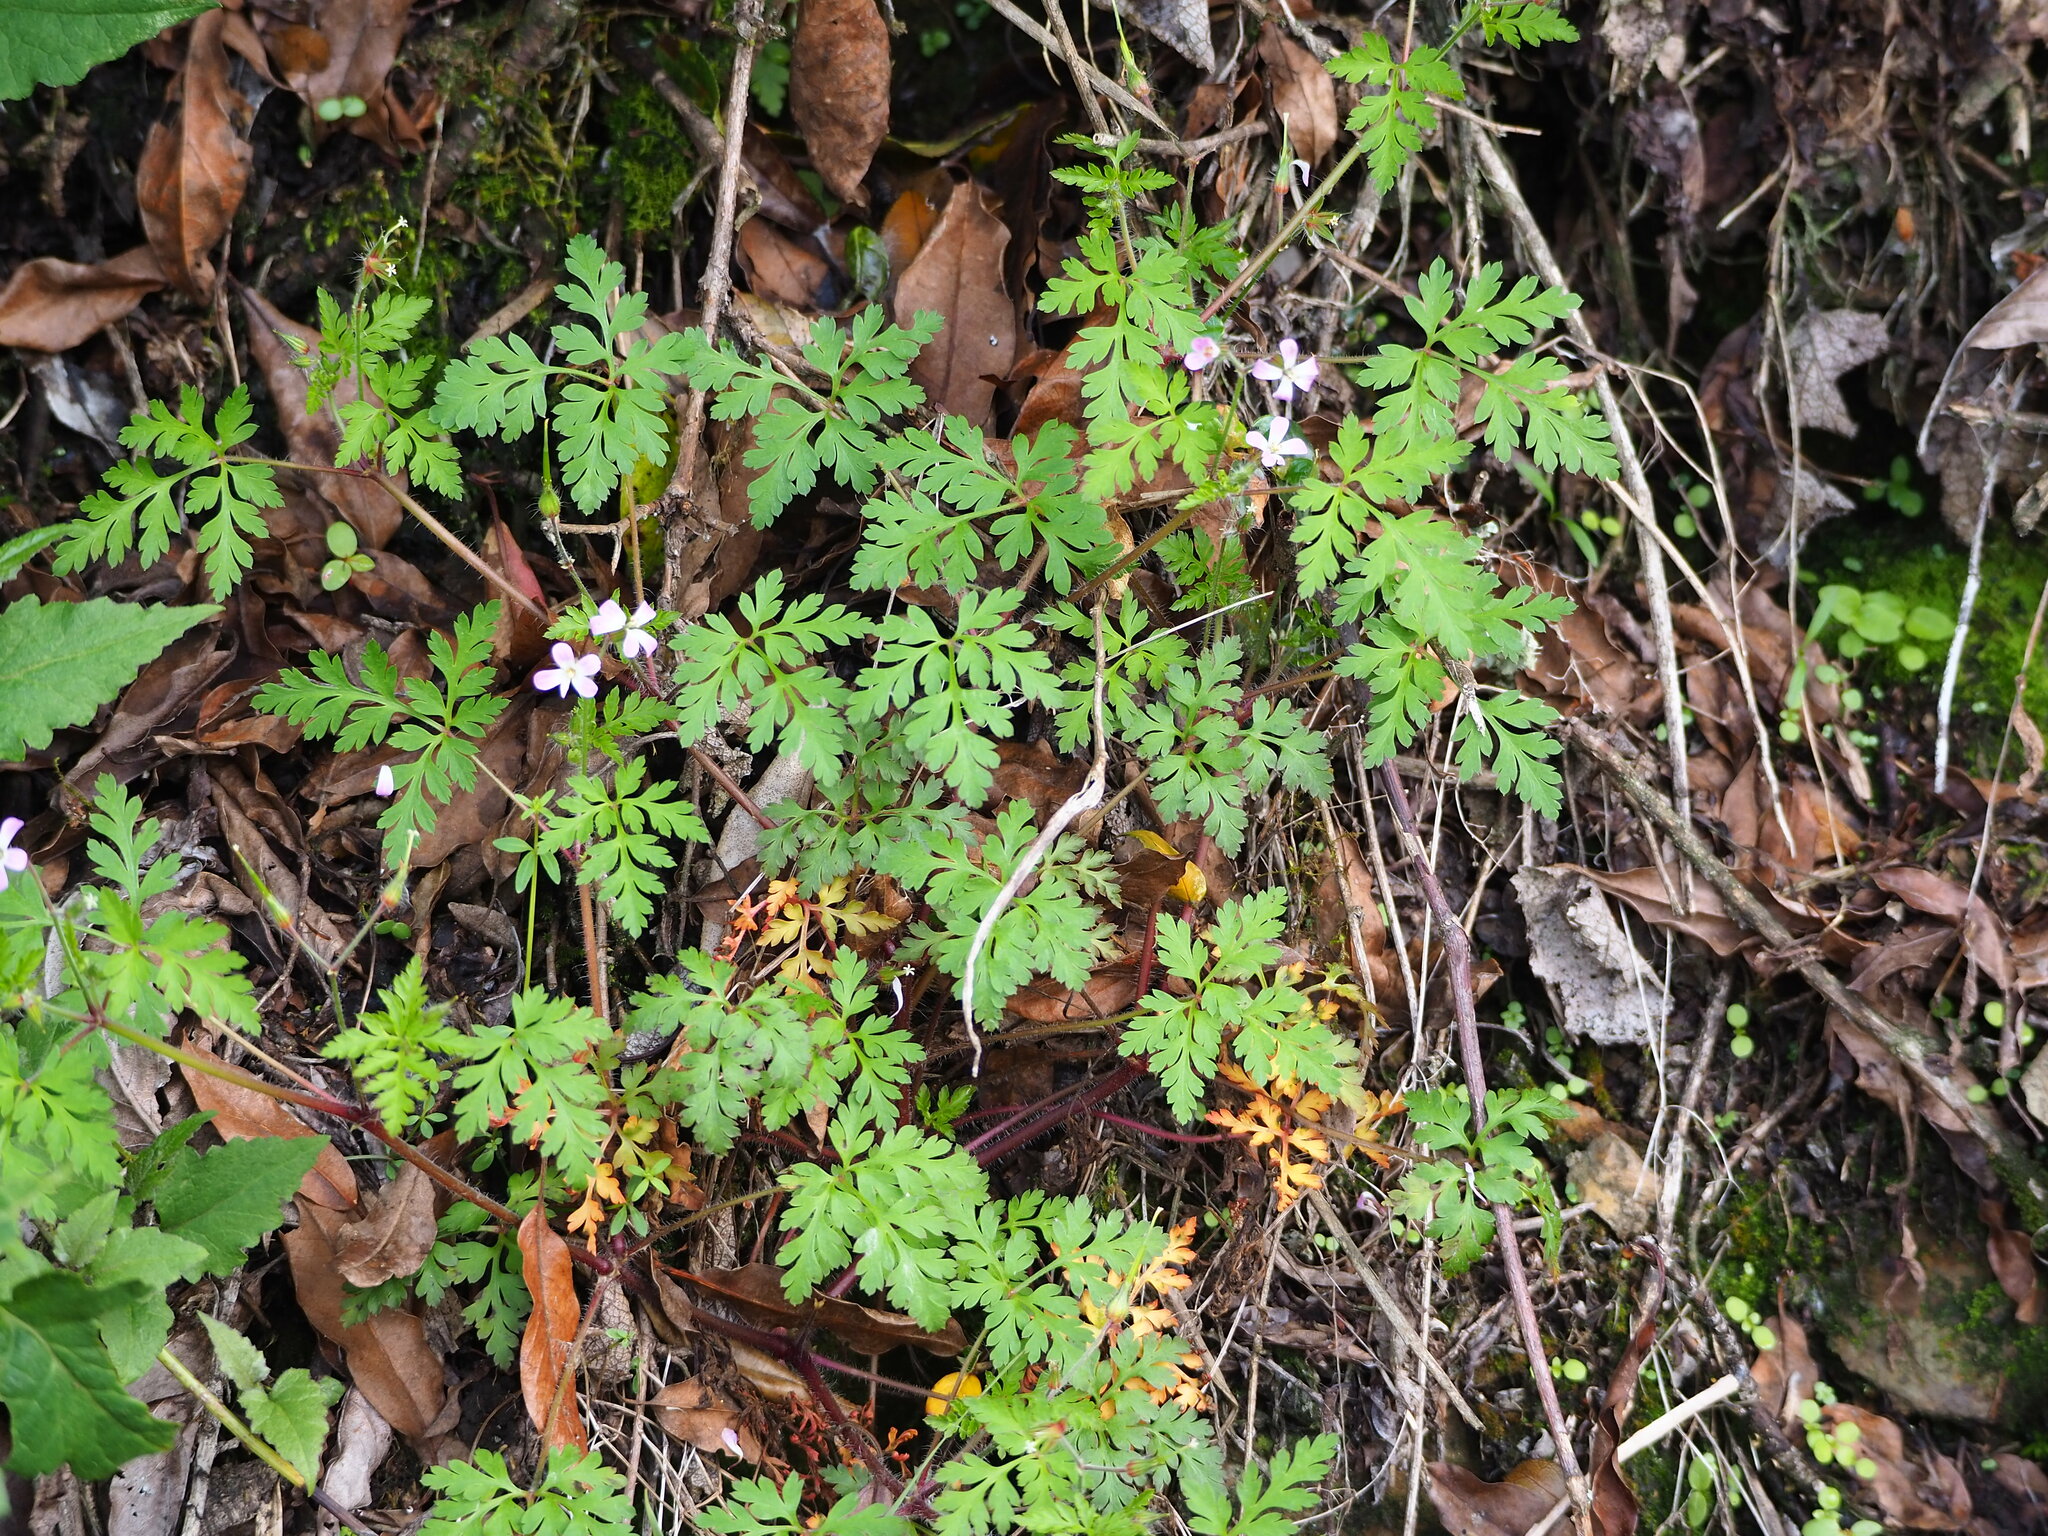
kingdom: Plantae
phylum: Tracheophyta
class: Magnoliopsida
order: Geraniales
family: Geraniaceae
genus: Geranium
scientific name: Geranium robertianum
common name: Herb-robert
